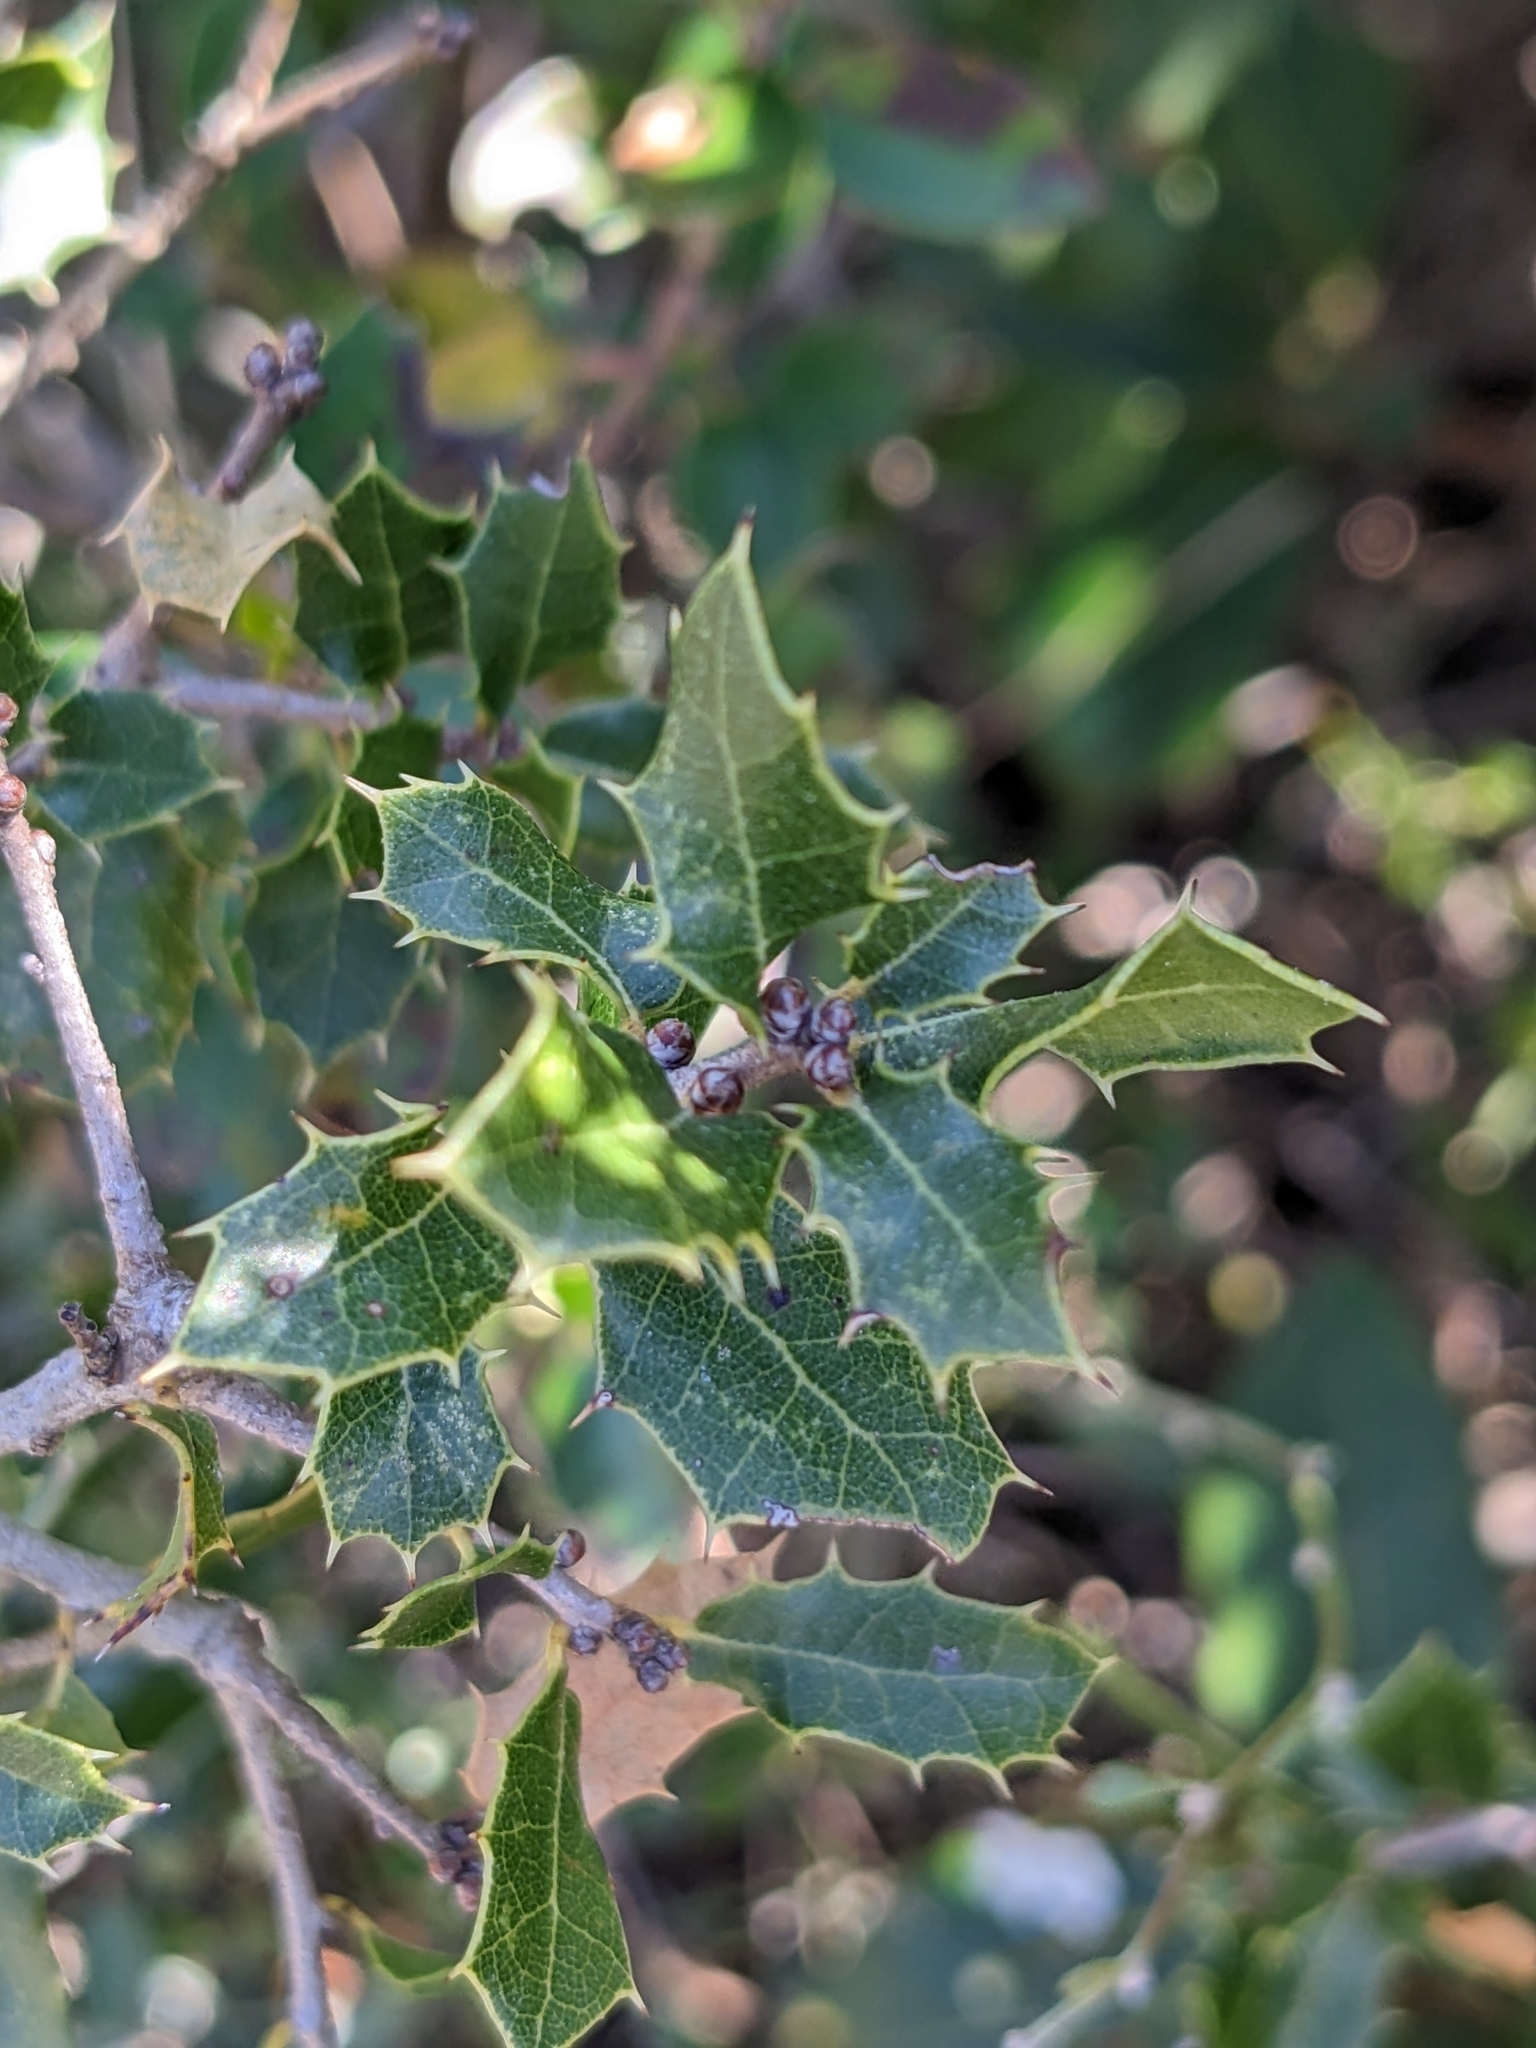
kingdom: Plantae
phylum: Tracheophyta
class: Magnoliopsida
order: Fagales
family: Fagaceae
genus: Quercus
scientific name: Quercus coccifera
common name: Kermes oak
